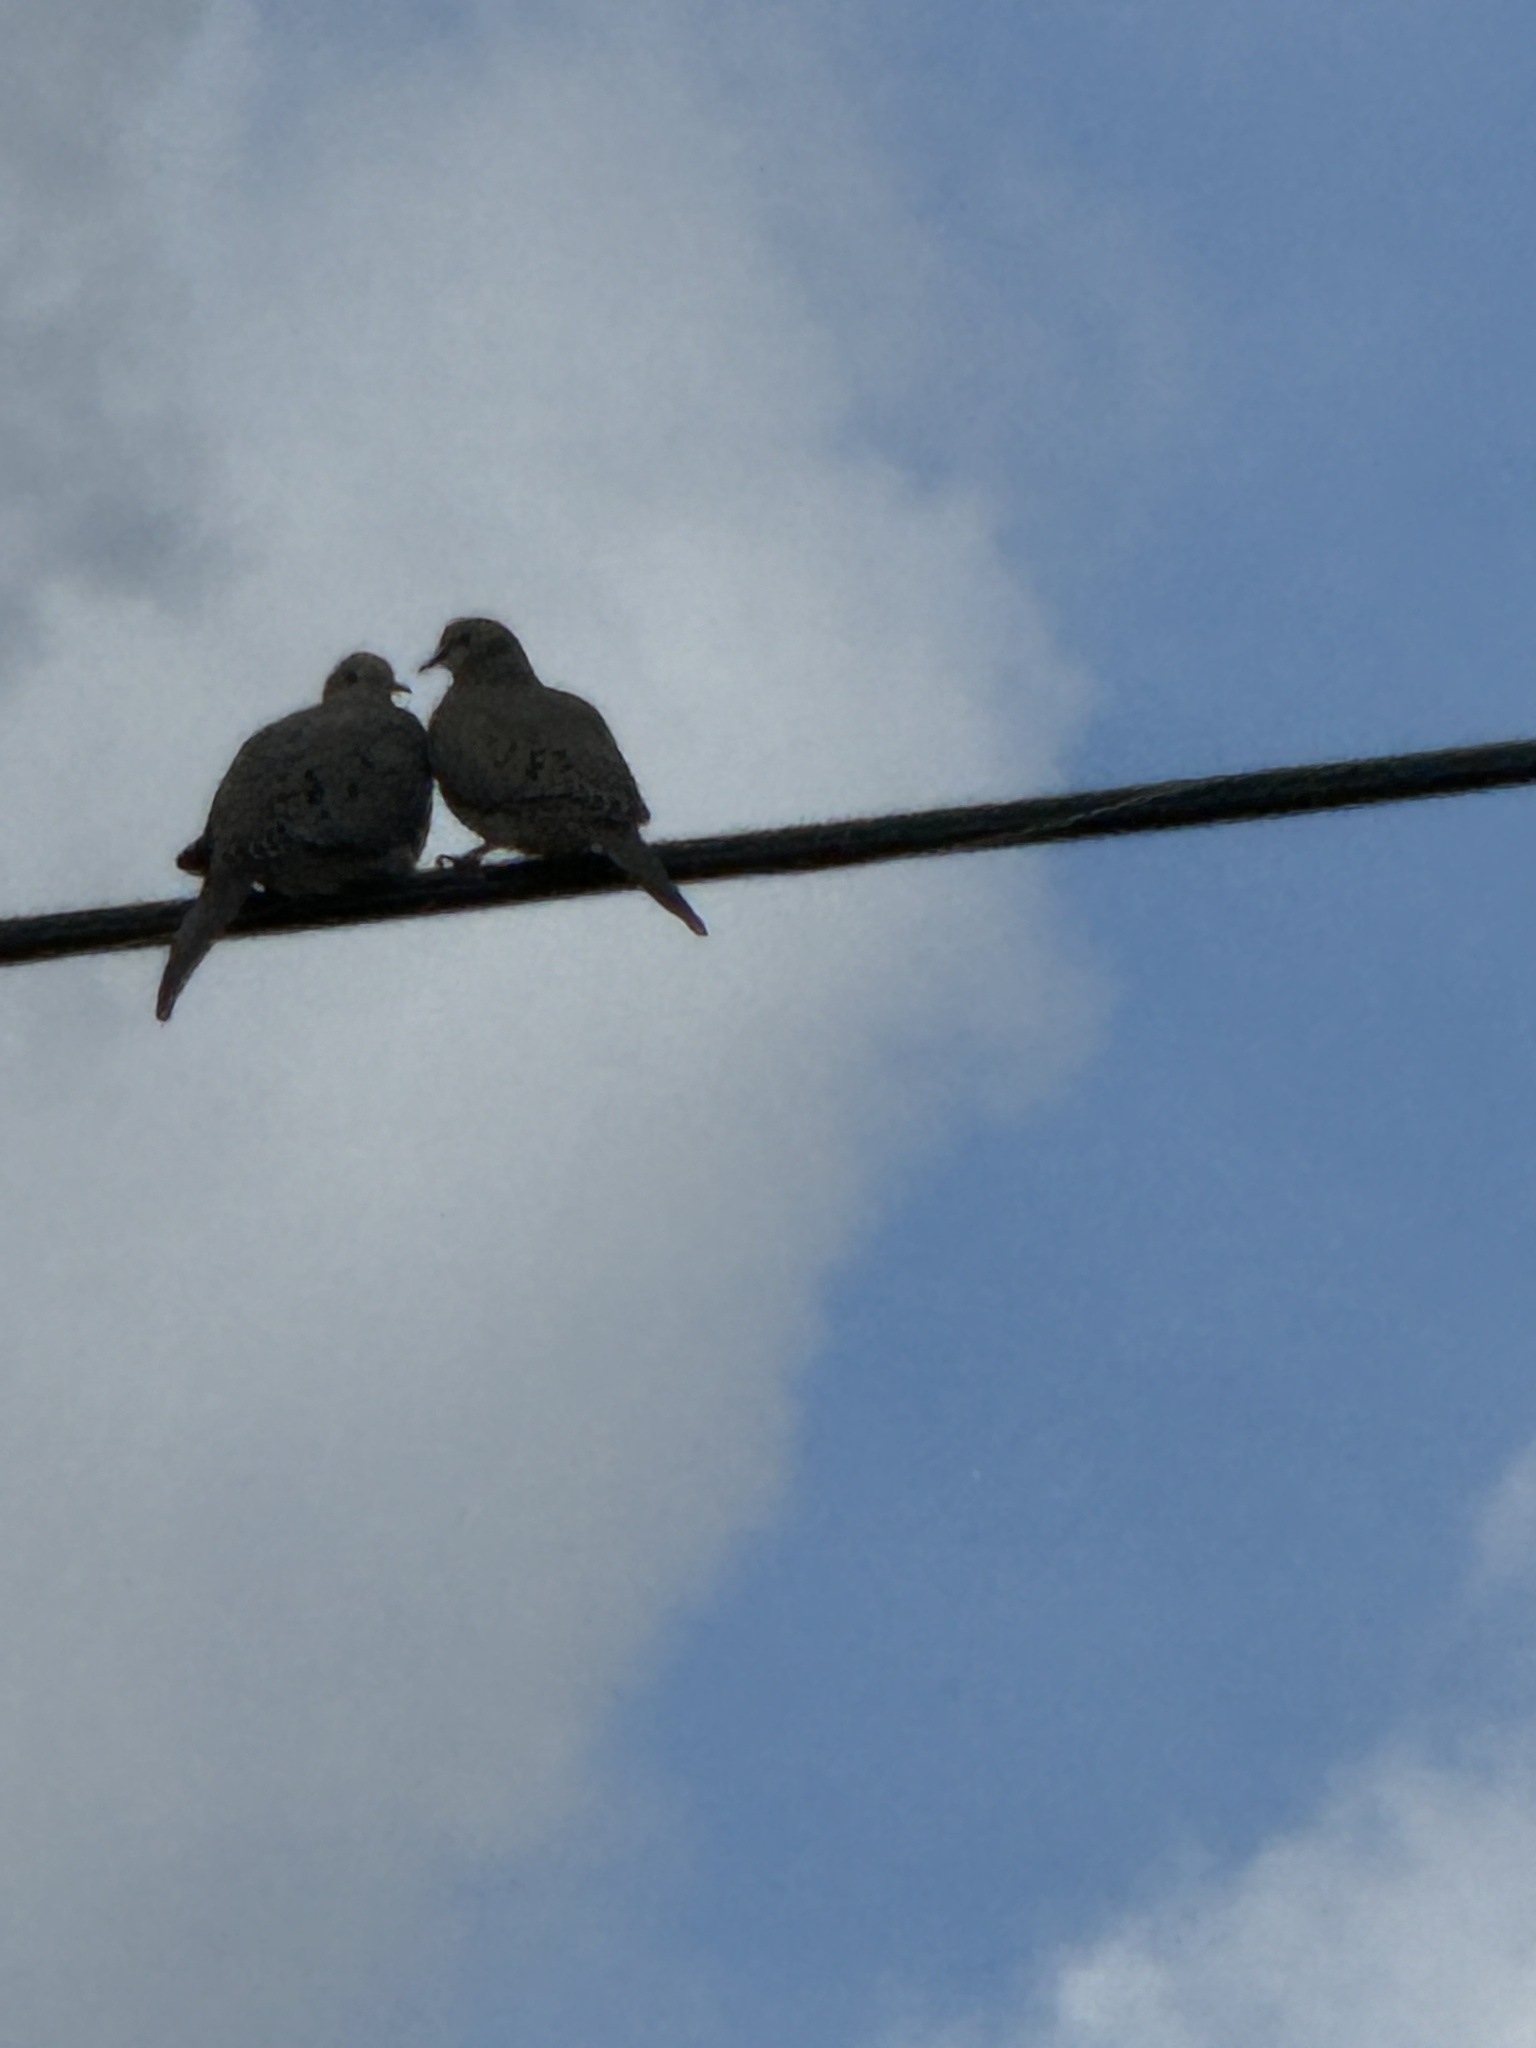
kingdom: Animalia
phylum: Chordata
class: Aves
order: Columbiformes
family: Columbidae
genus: Zenaida
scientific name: Zenaida macroura
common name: Mourning dove
